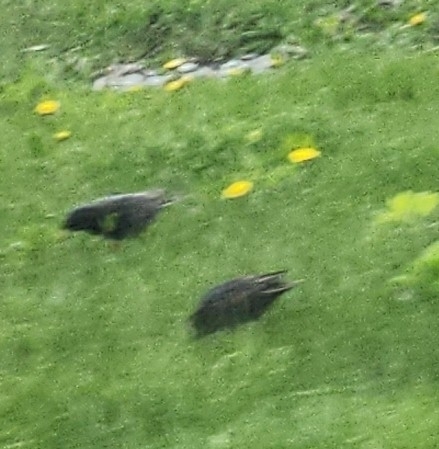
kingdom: Animalia
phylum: Chordata
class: Aves
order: Passeriformes
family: Sturnidae
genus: Sturnus
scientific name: Sturnus vulgaris
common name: Common starling
